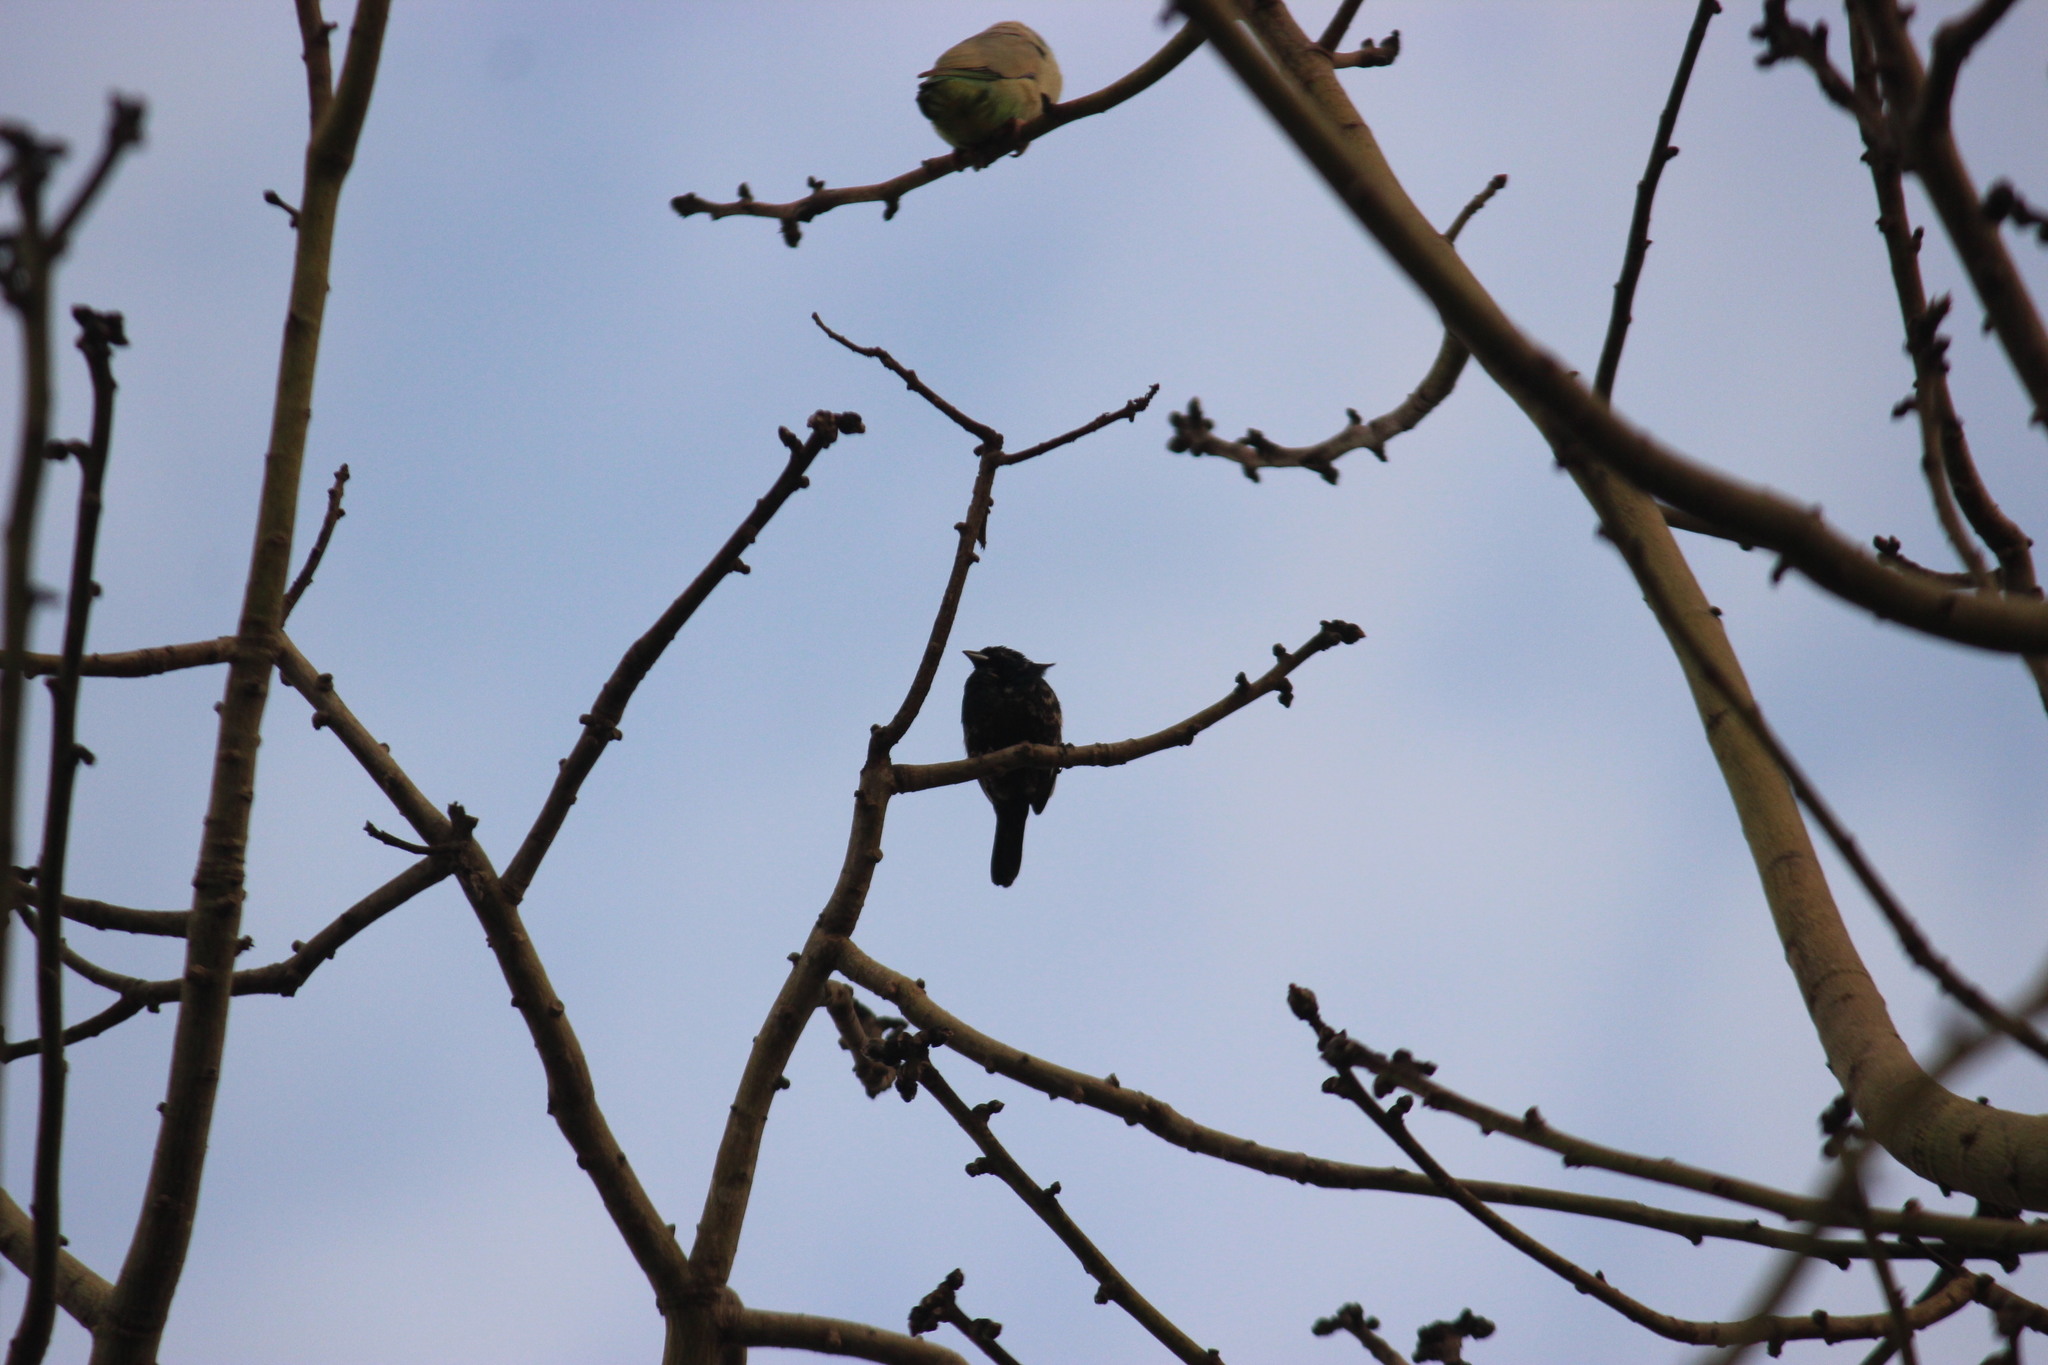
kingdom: Animalia
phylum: Chordata
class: Aves
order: Passeriformes
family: Thraupidae
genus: Volatinia
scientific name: Volatinia jacarina
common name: Blue-black grassquit
